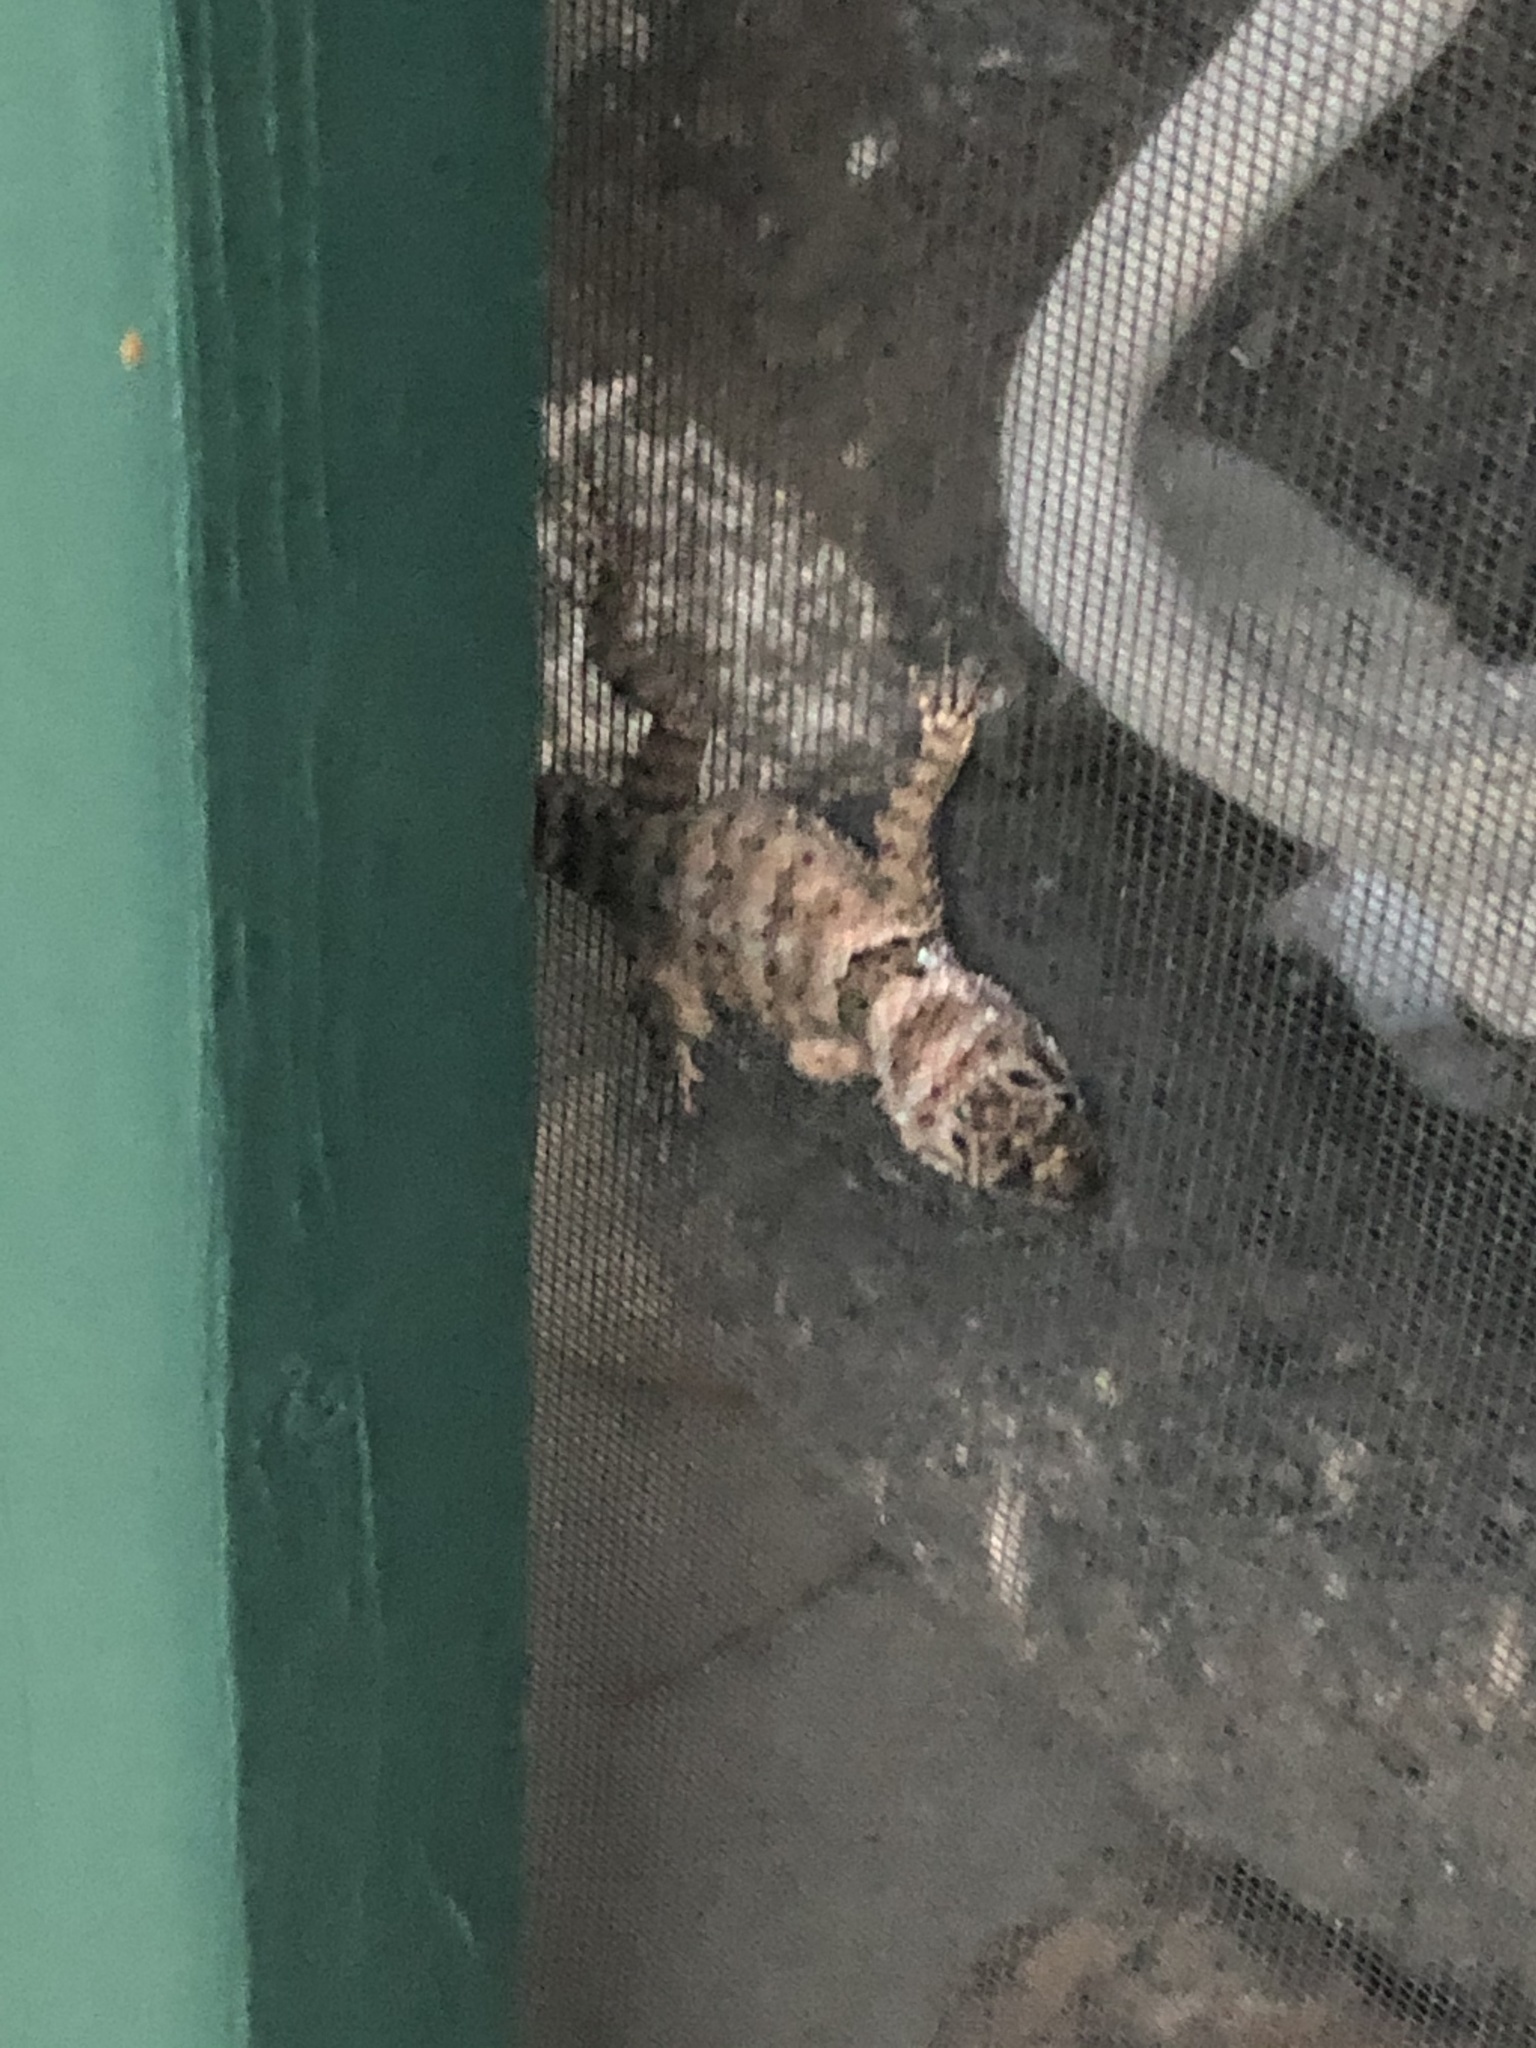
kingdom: Animalia
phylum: Chordata
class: Squamata
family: Phrynosomatidae
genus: Sceloporus
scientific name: Sceloporus poinsettii
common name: Crevice spiny lizard
